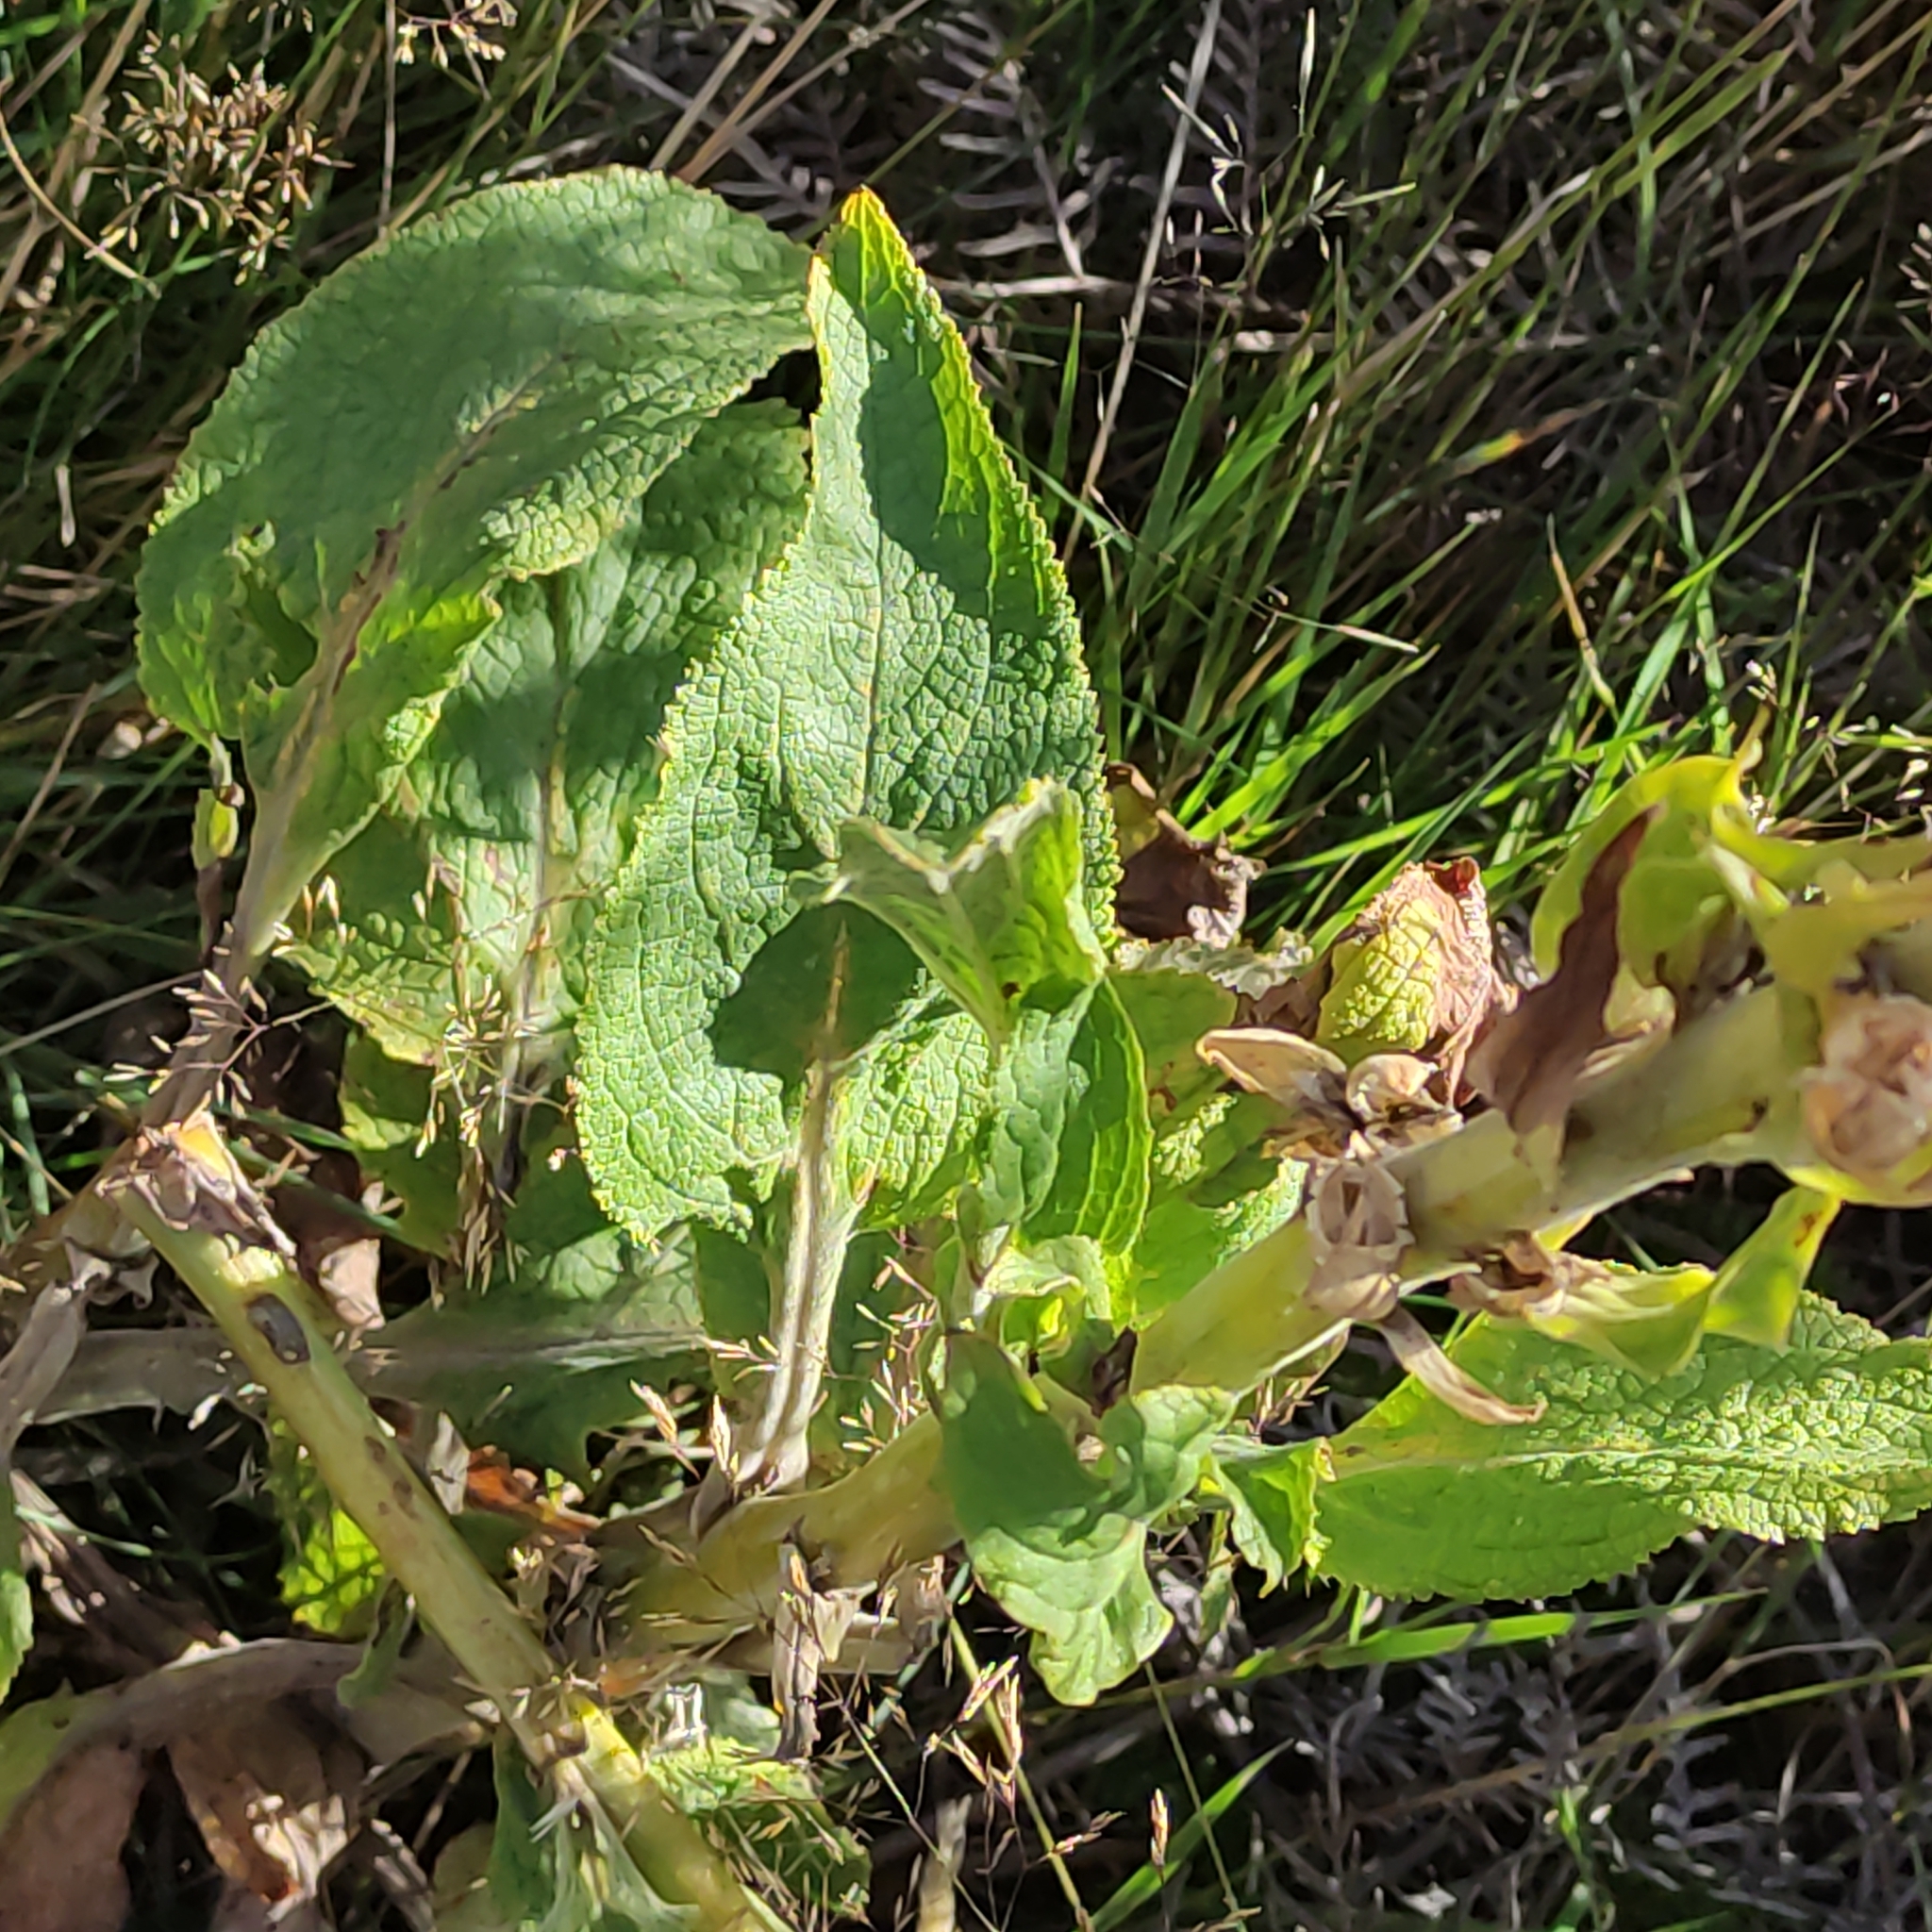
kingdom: Plantae
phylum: Tracheophyta
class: Magnoliopsida
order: Lamiales
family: Plantaginaceae
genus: Digitalis
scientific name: Digitalis purpurea
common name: Foxglove
